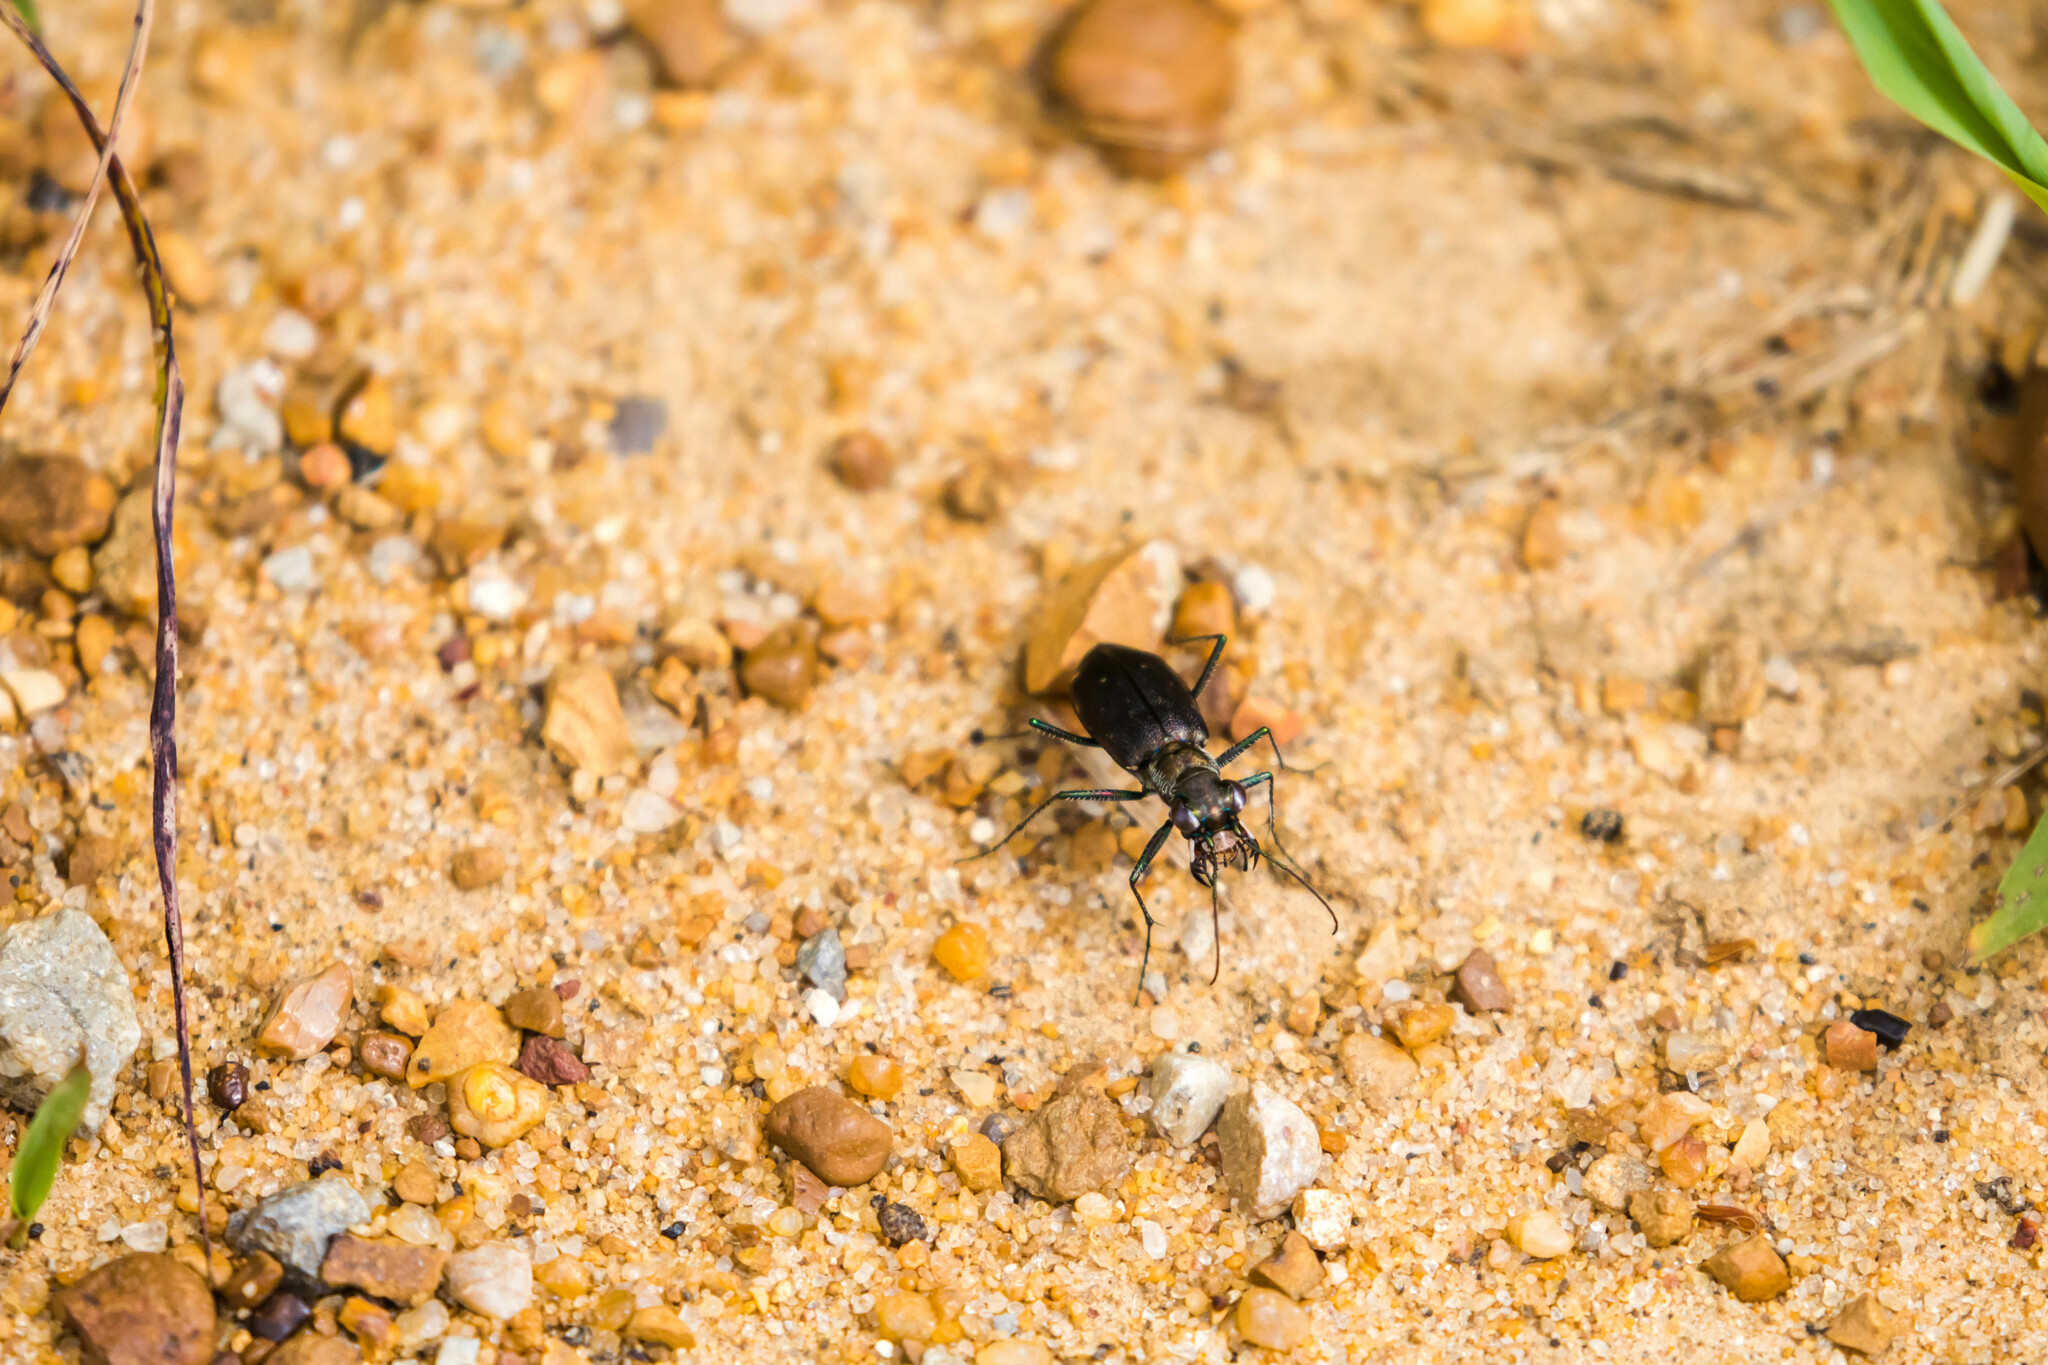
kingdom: Animalia
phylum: Arthropoda
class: Insecta
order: Coleoptera
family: Carabidae
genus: Cicindela
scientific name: Cicindela punctulata
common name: Punctured tiger beetle
